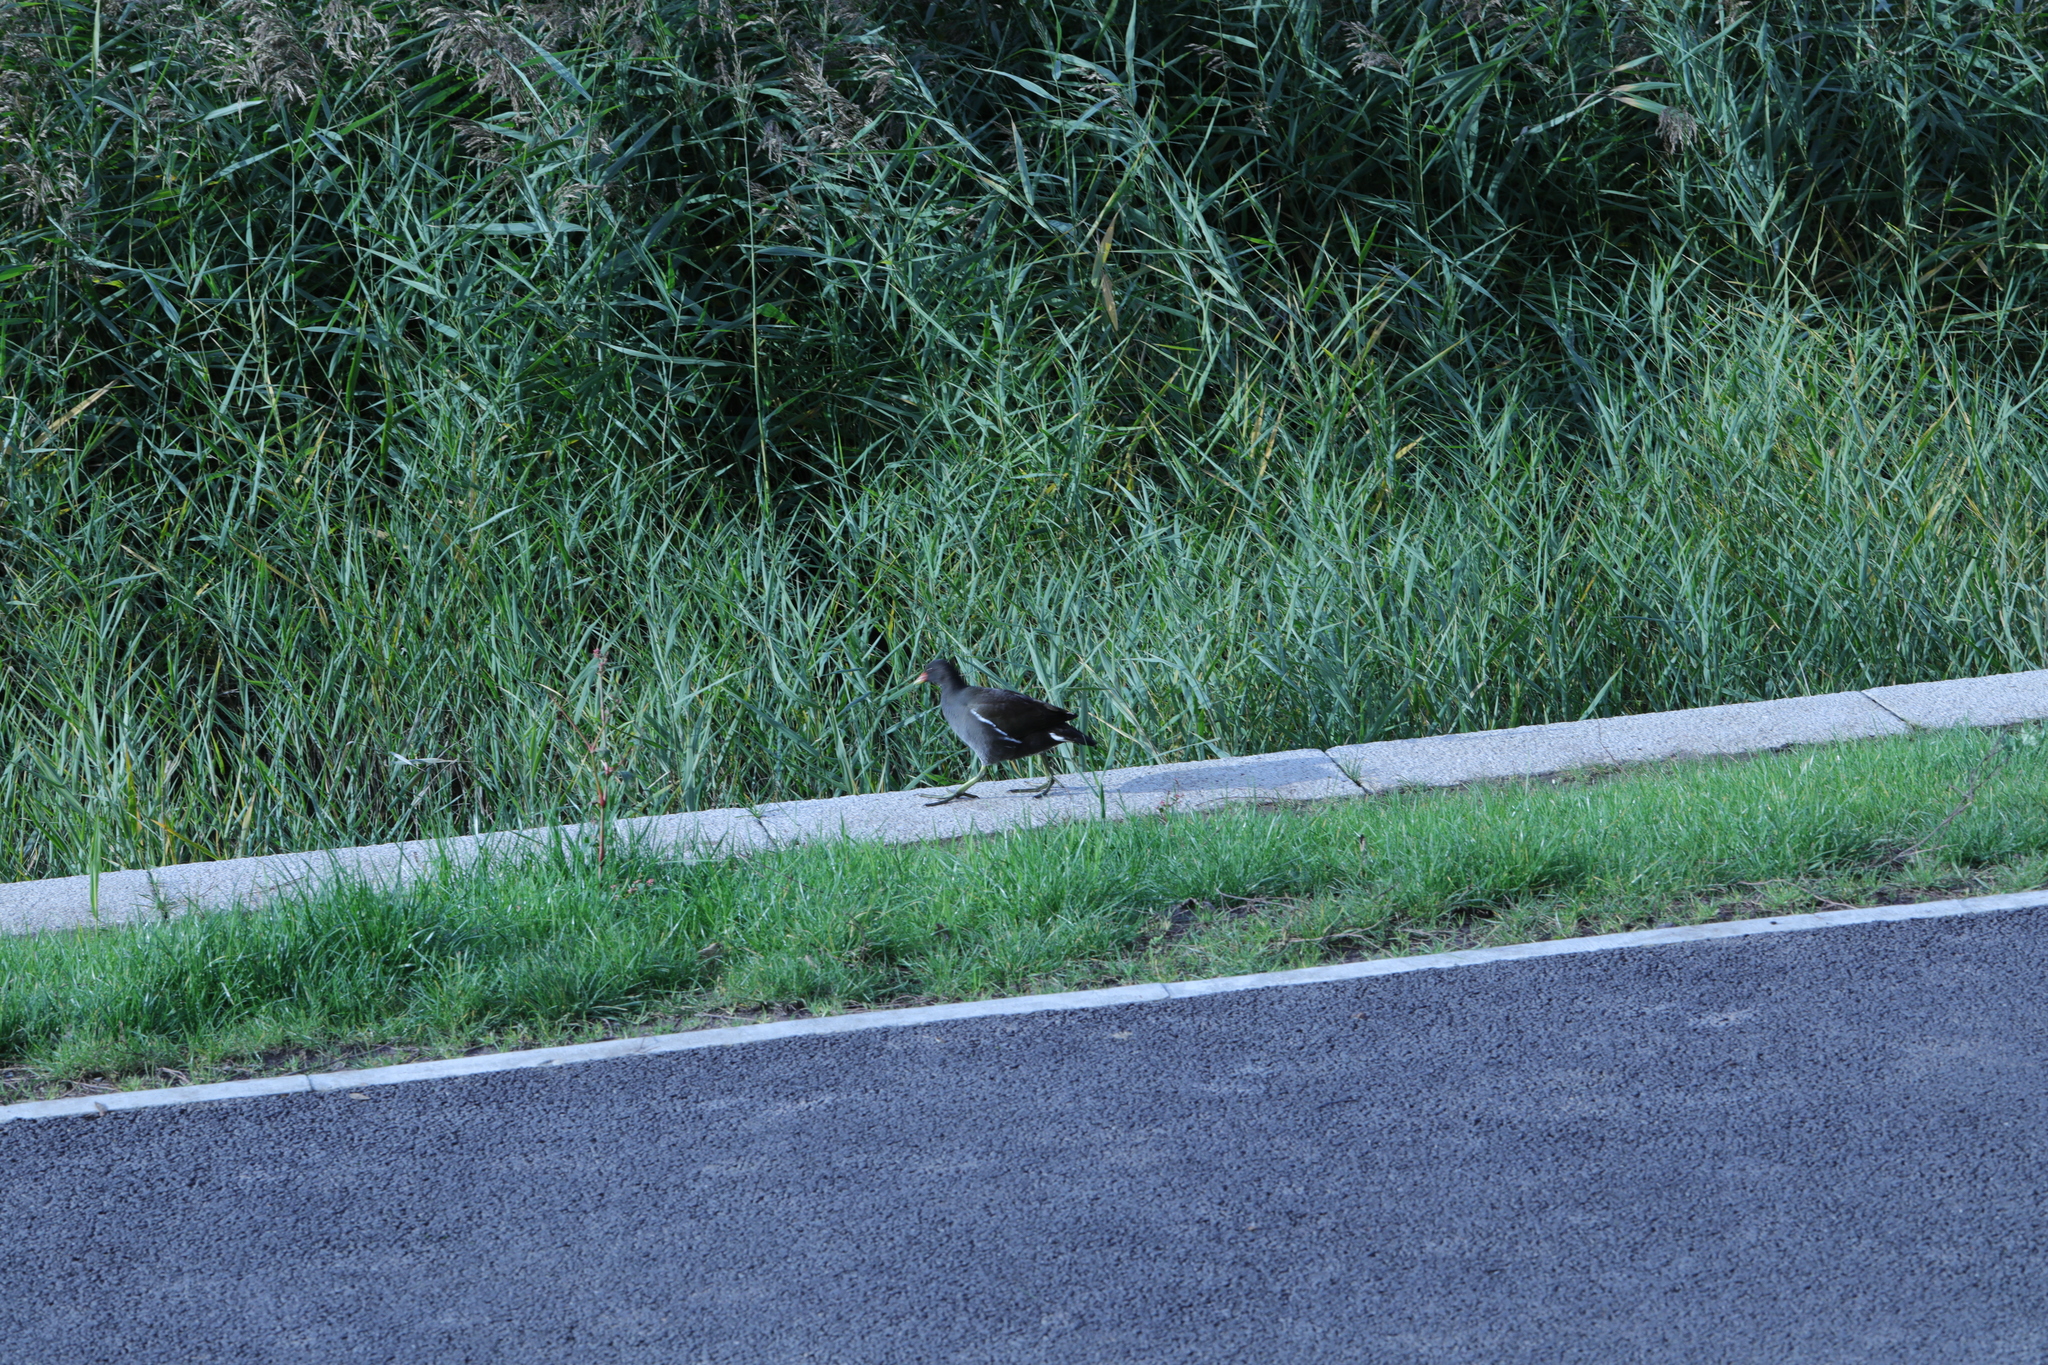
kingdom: Animalia
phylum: Chordata
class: Aves
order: Gruiformes
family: Rallidae
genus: Gallinula
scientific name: Gallinula chloropus
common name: Common moorhen
